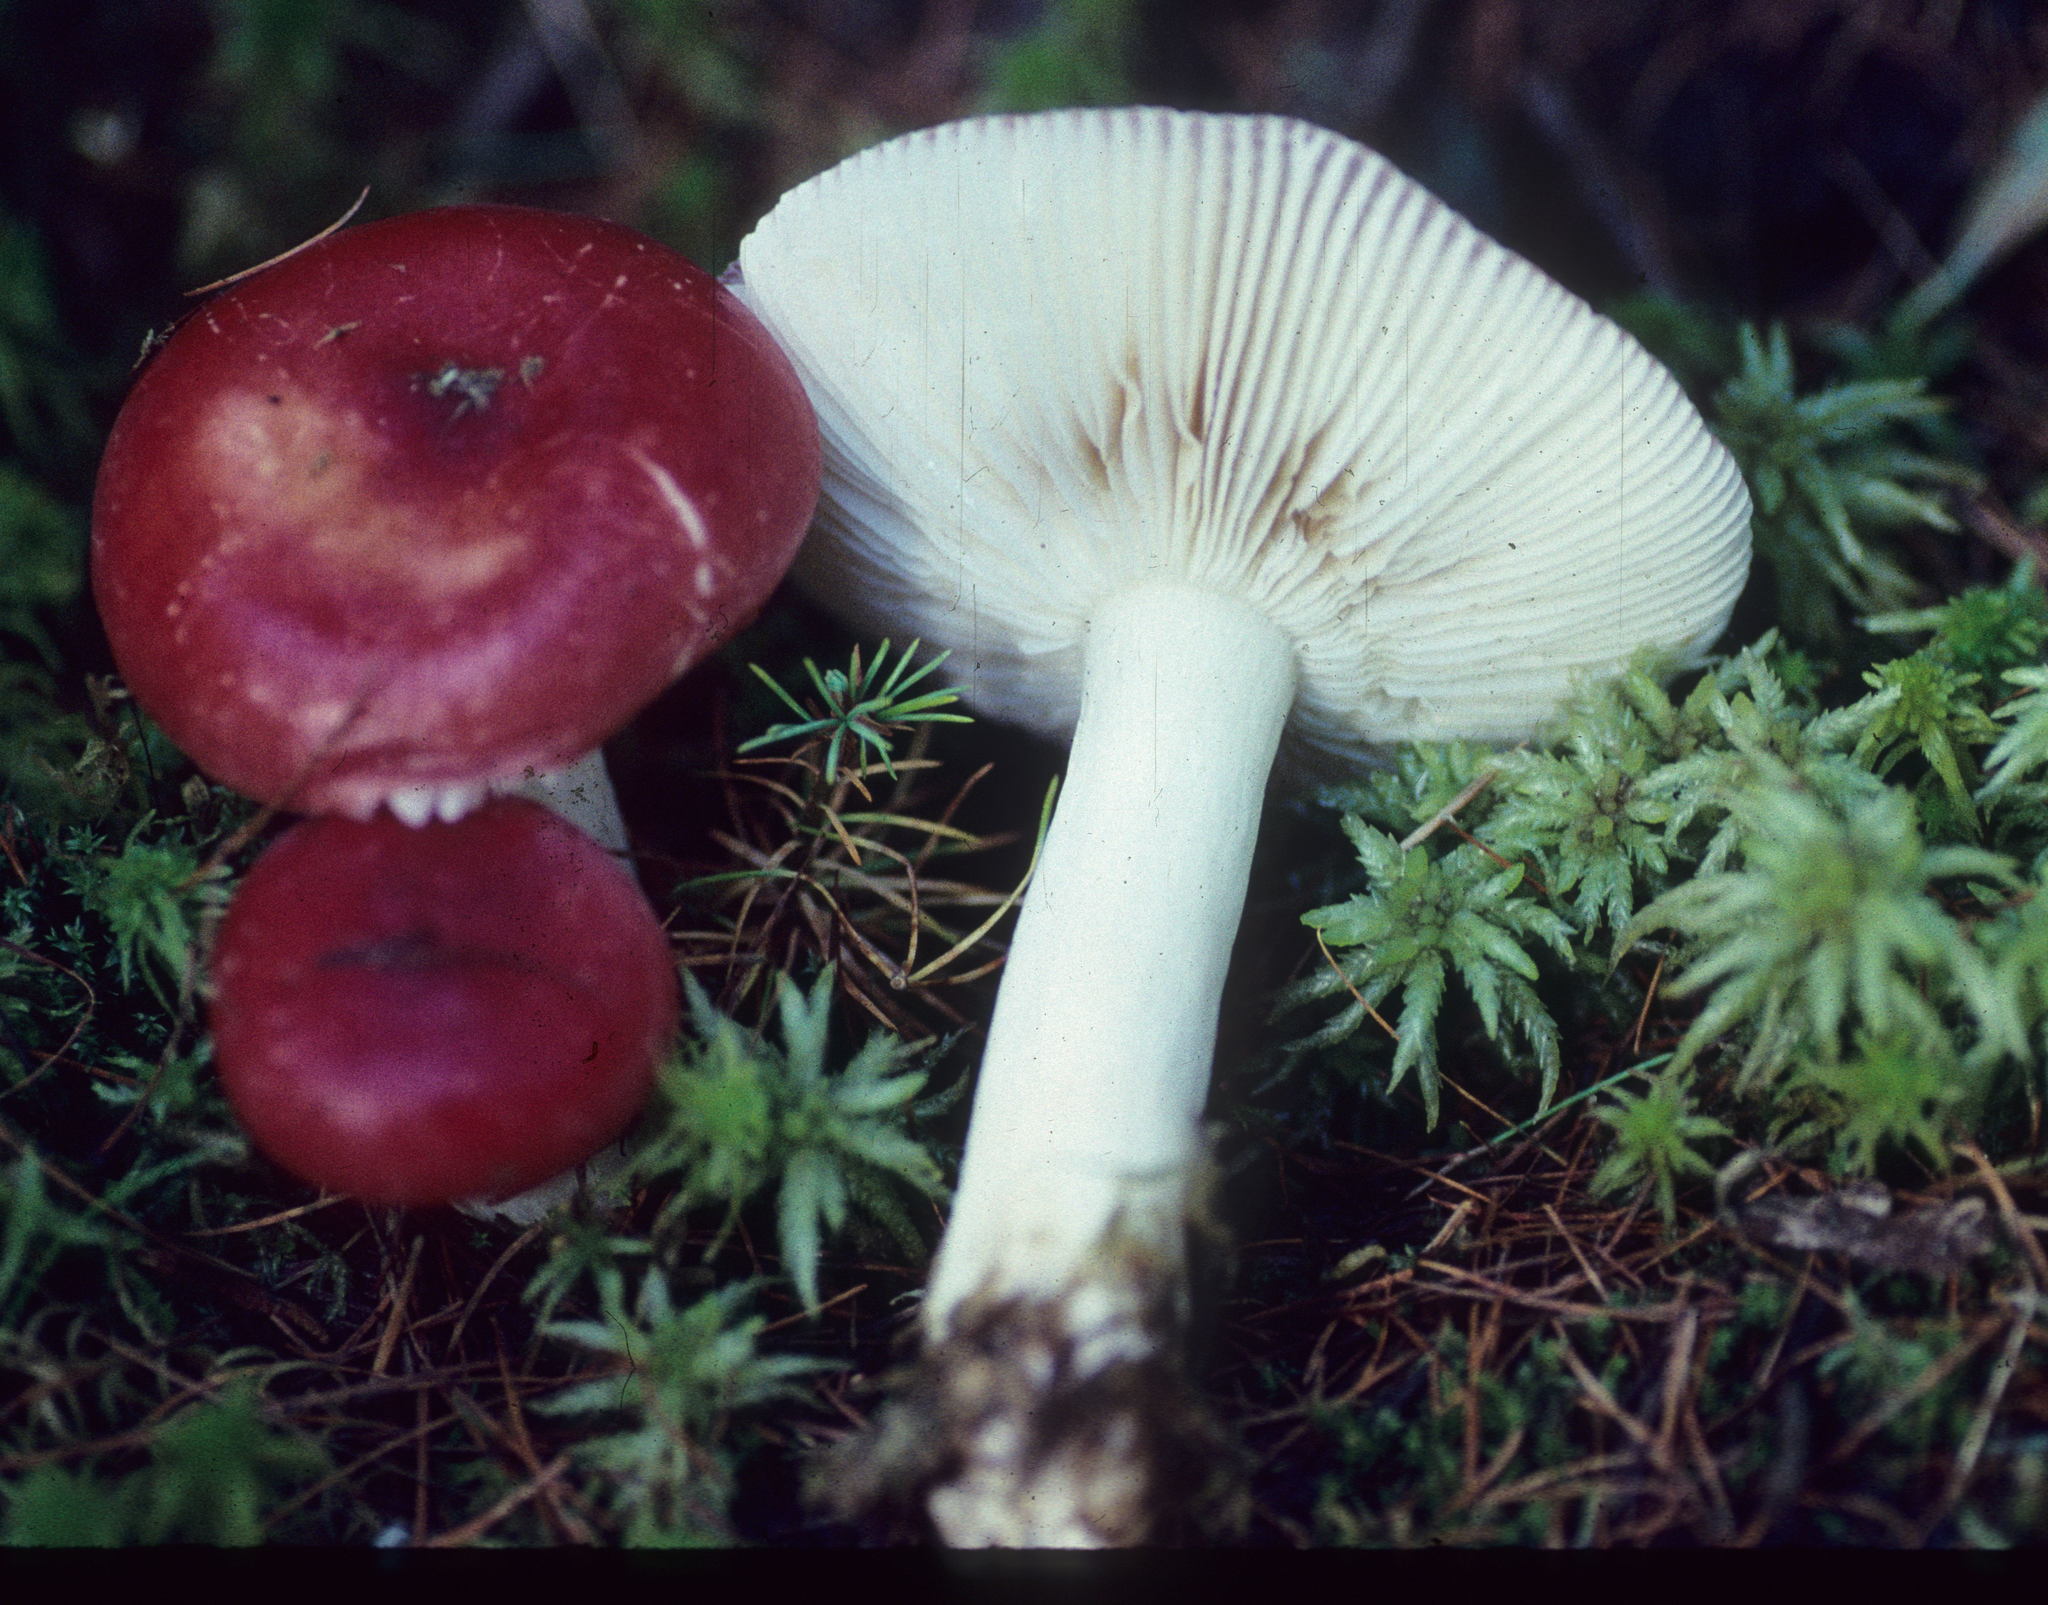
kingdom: Fungi
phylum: Basidiomycota
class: Agaricomycetes
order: Russulales
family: Russulaceae
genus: Russula
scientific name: Russula
